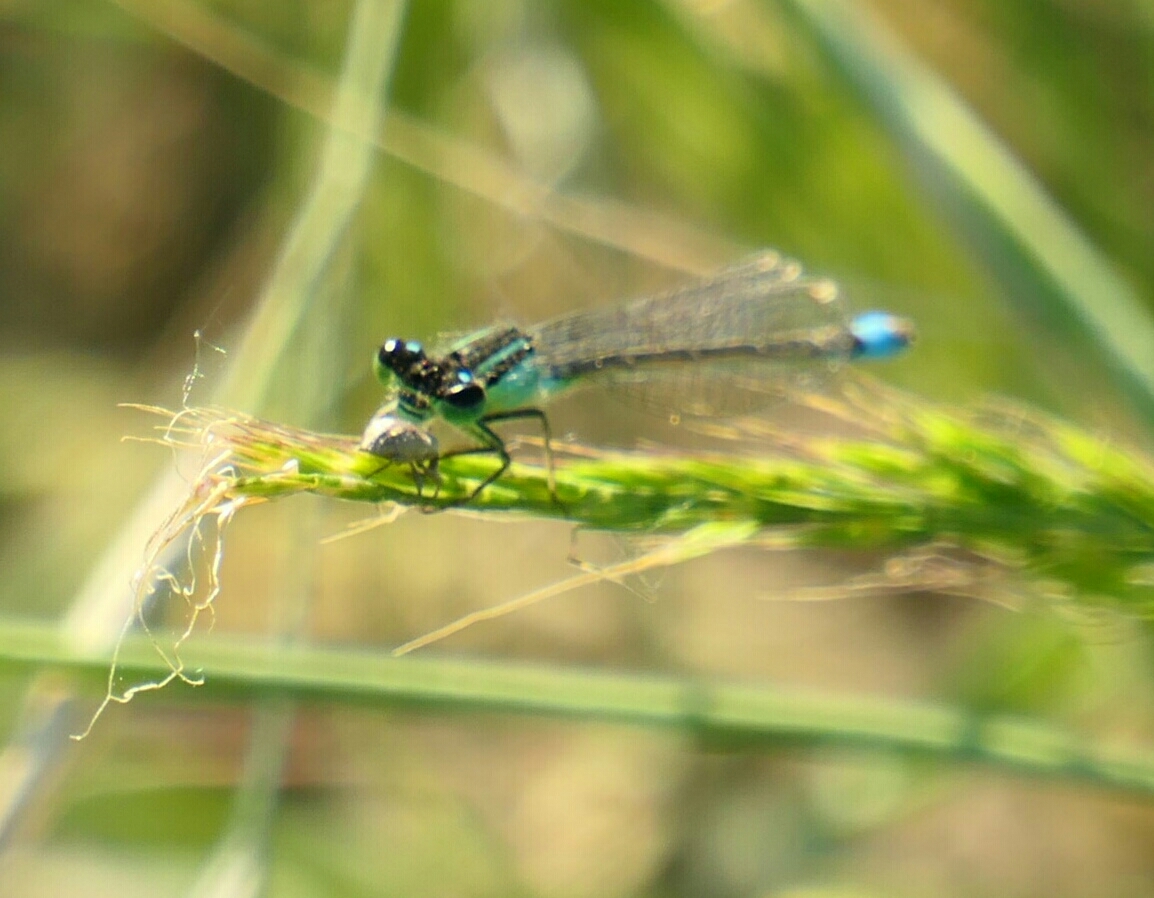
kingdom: Animalia
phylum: Arthropoda
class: Insecta
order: Odonata
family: Coenagrionidae
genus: Ischnura
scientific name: Ischnura elegans
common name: Blue-tailed damselfly
